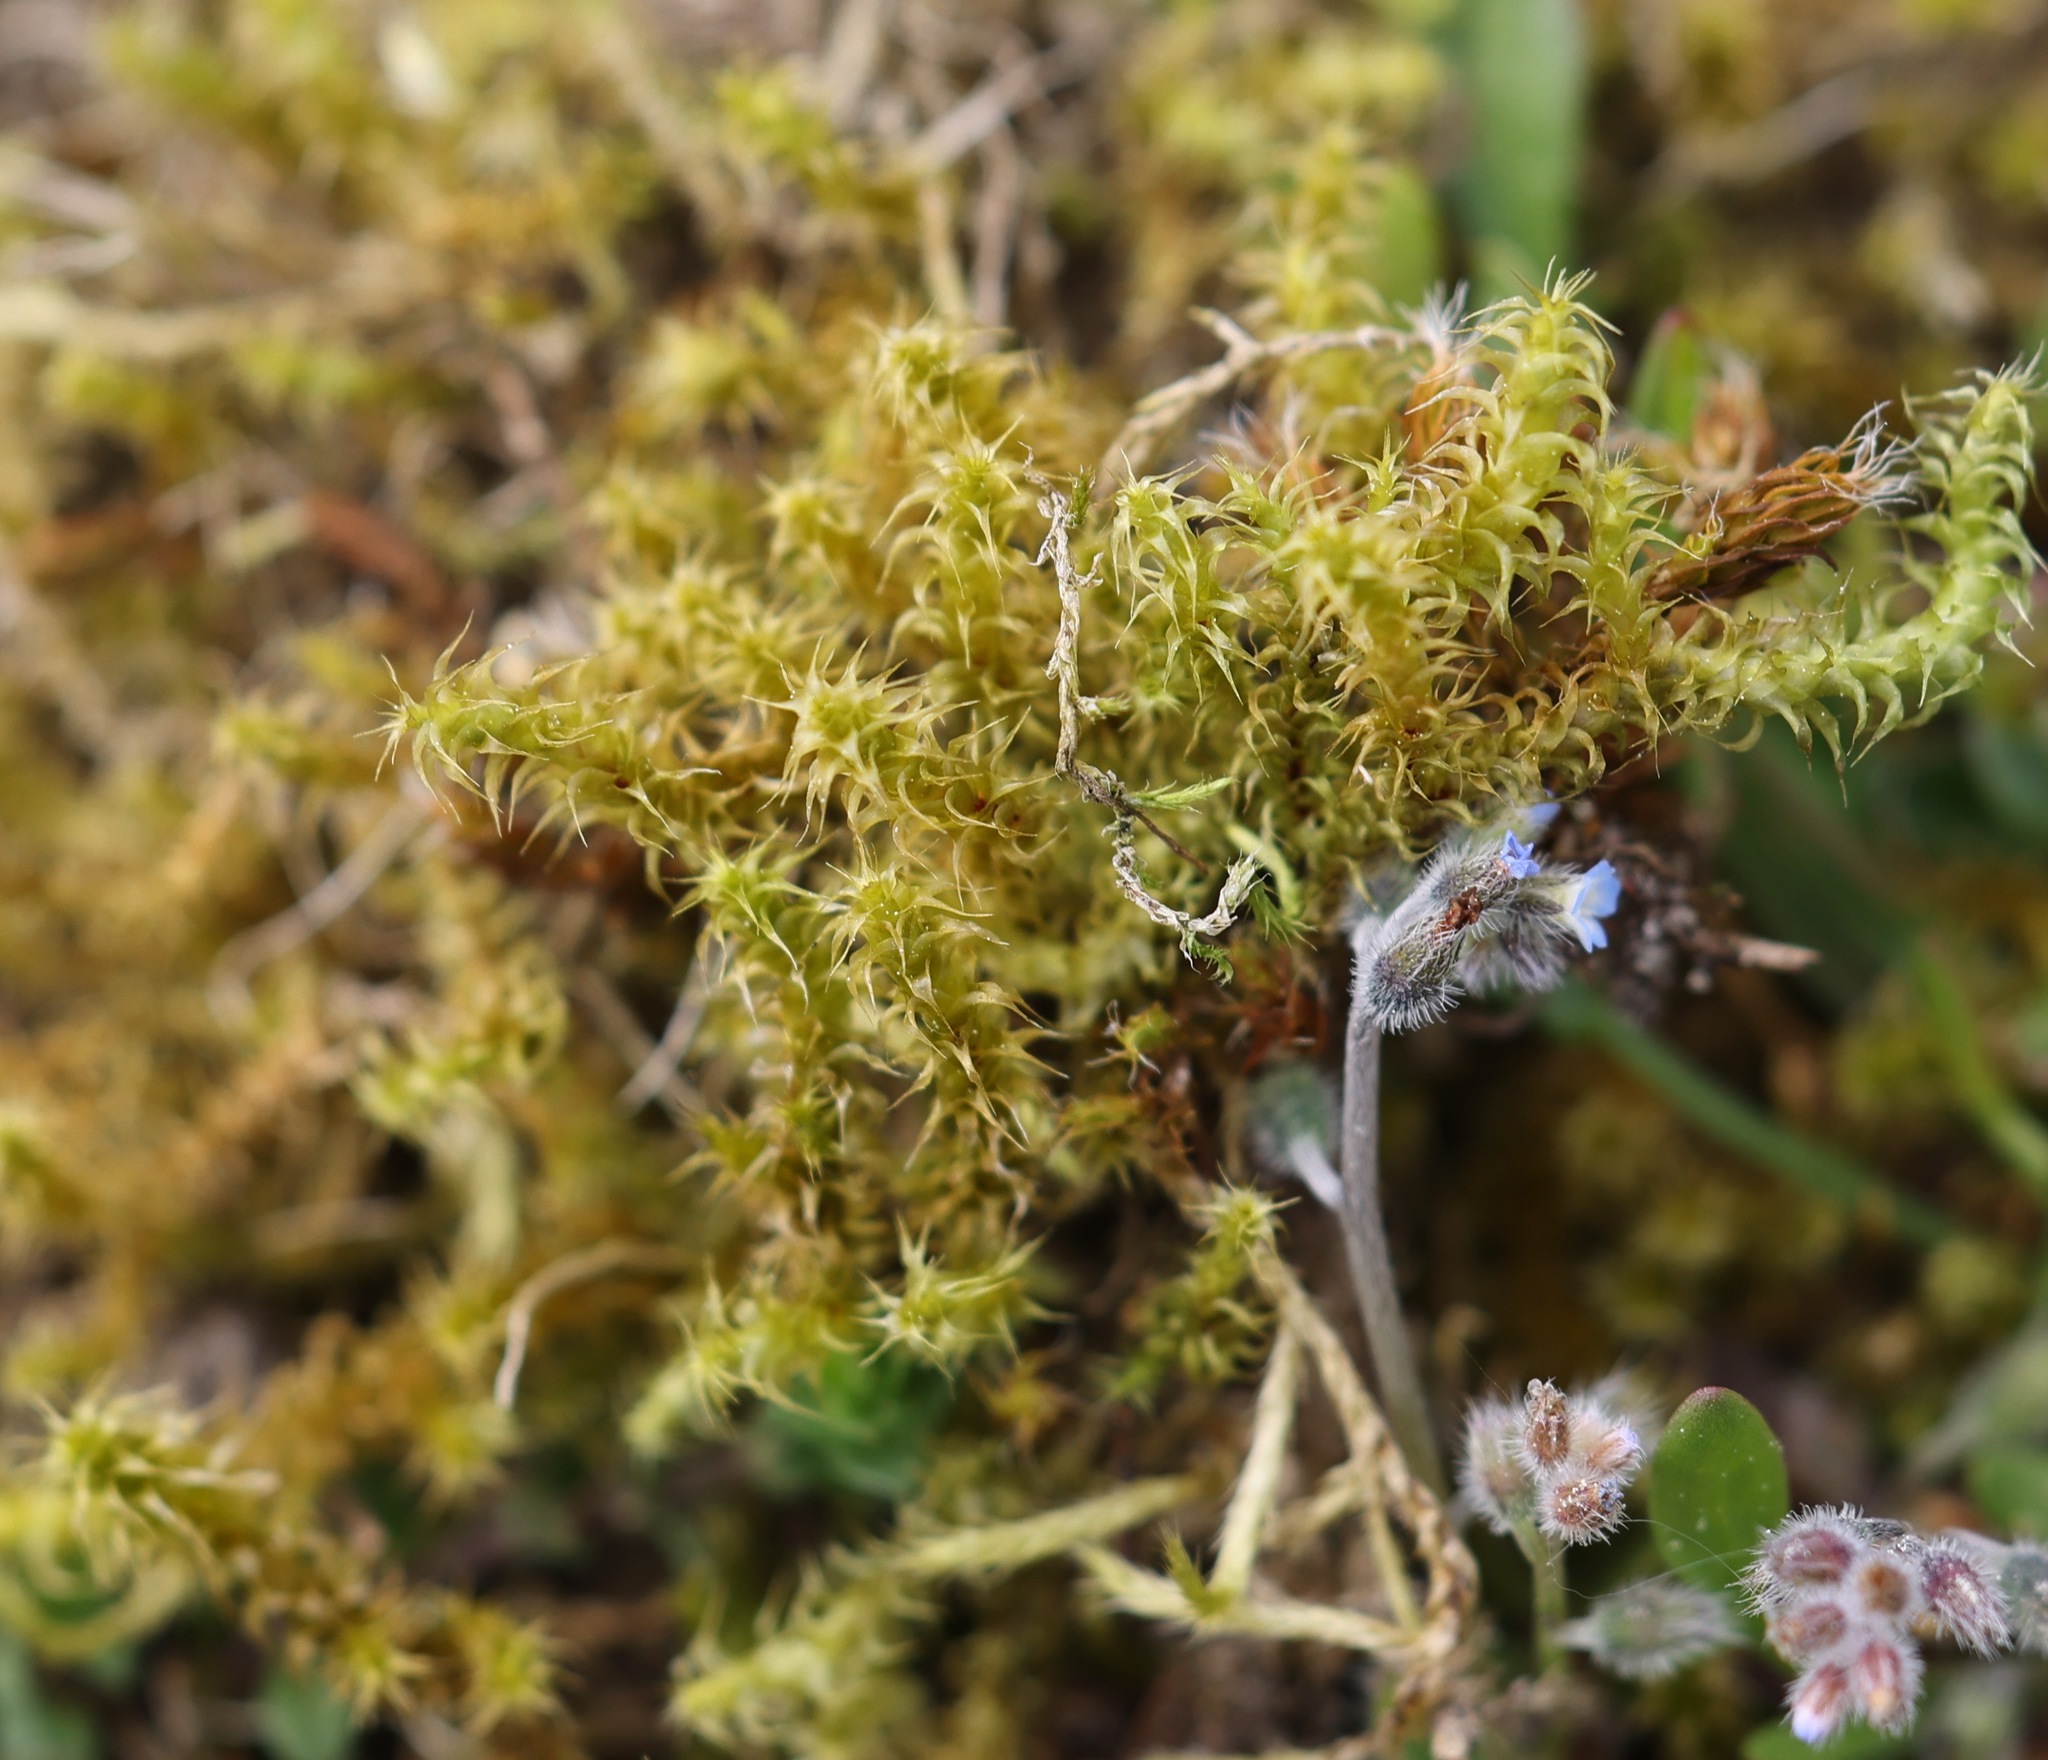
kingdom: Plantae
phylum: Bryophyta
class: Bryopsida
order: Hypnales
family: Hylocomiaceae
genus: Rhytidiadelphus
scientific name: Rhytidiadelphus squarrosus
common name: Springy turf-moss
